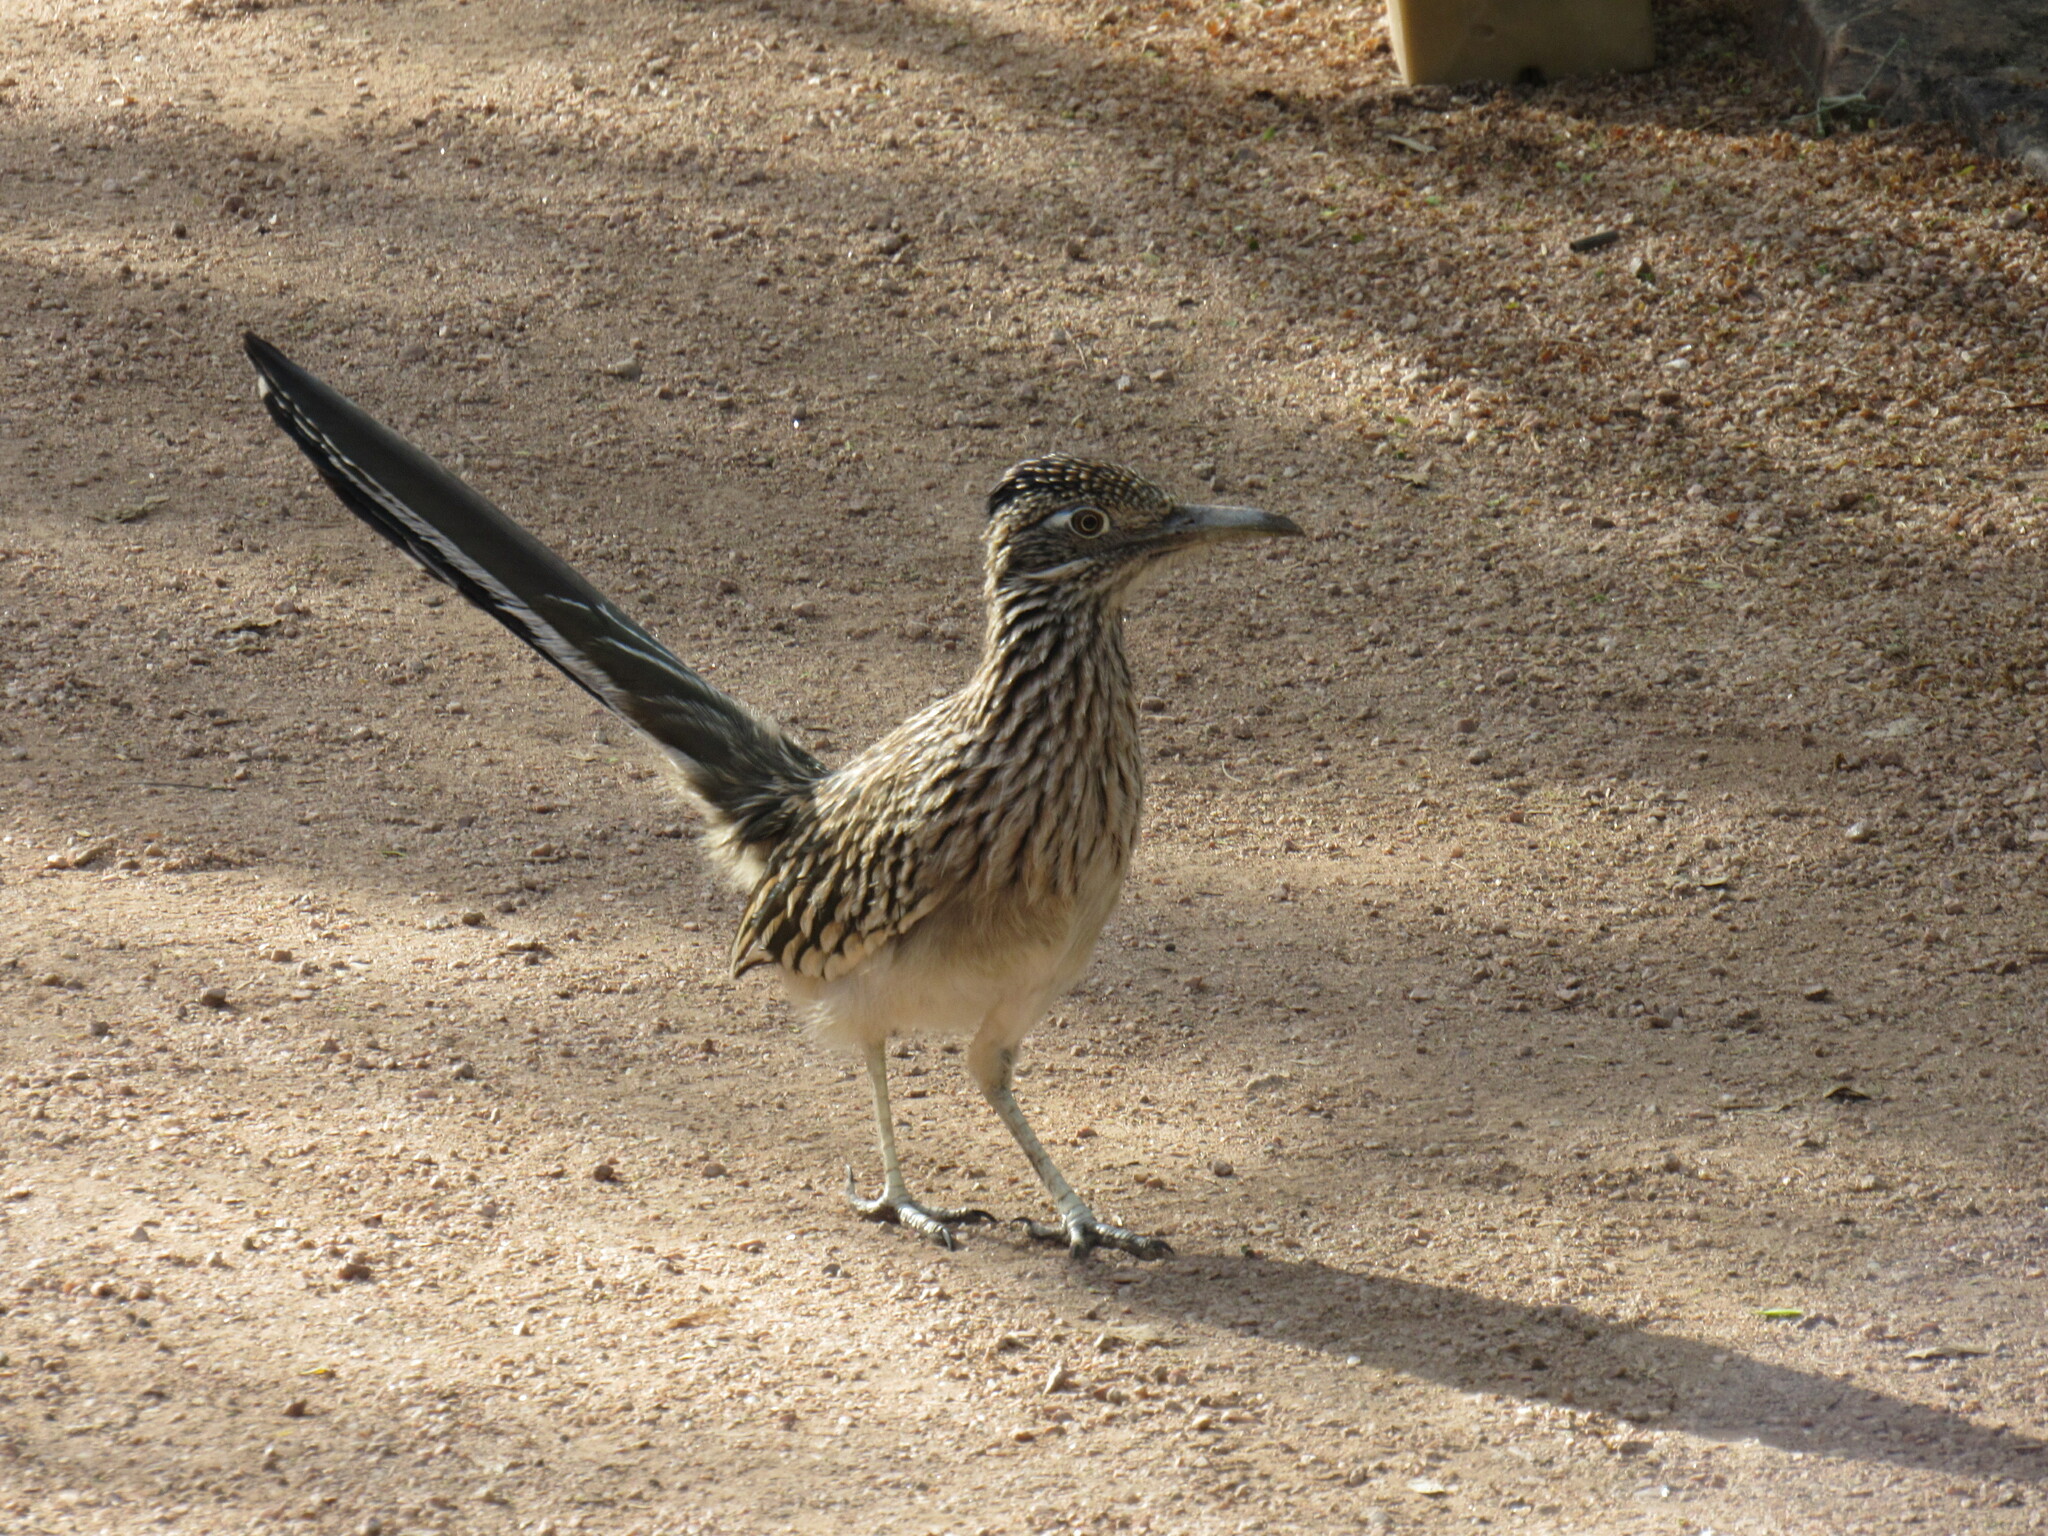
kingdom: Animalia
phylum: Chordata
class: Aves
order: Cuculiformes
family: Cuculidae
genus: Geococcyx
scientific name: Geococcyx californianus
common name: Greater roadrunner
